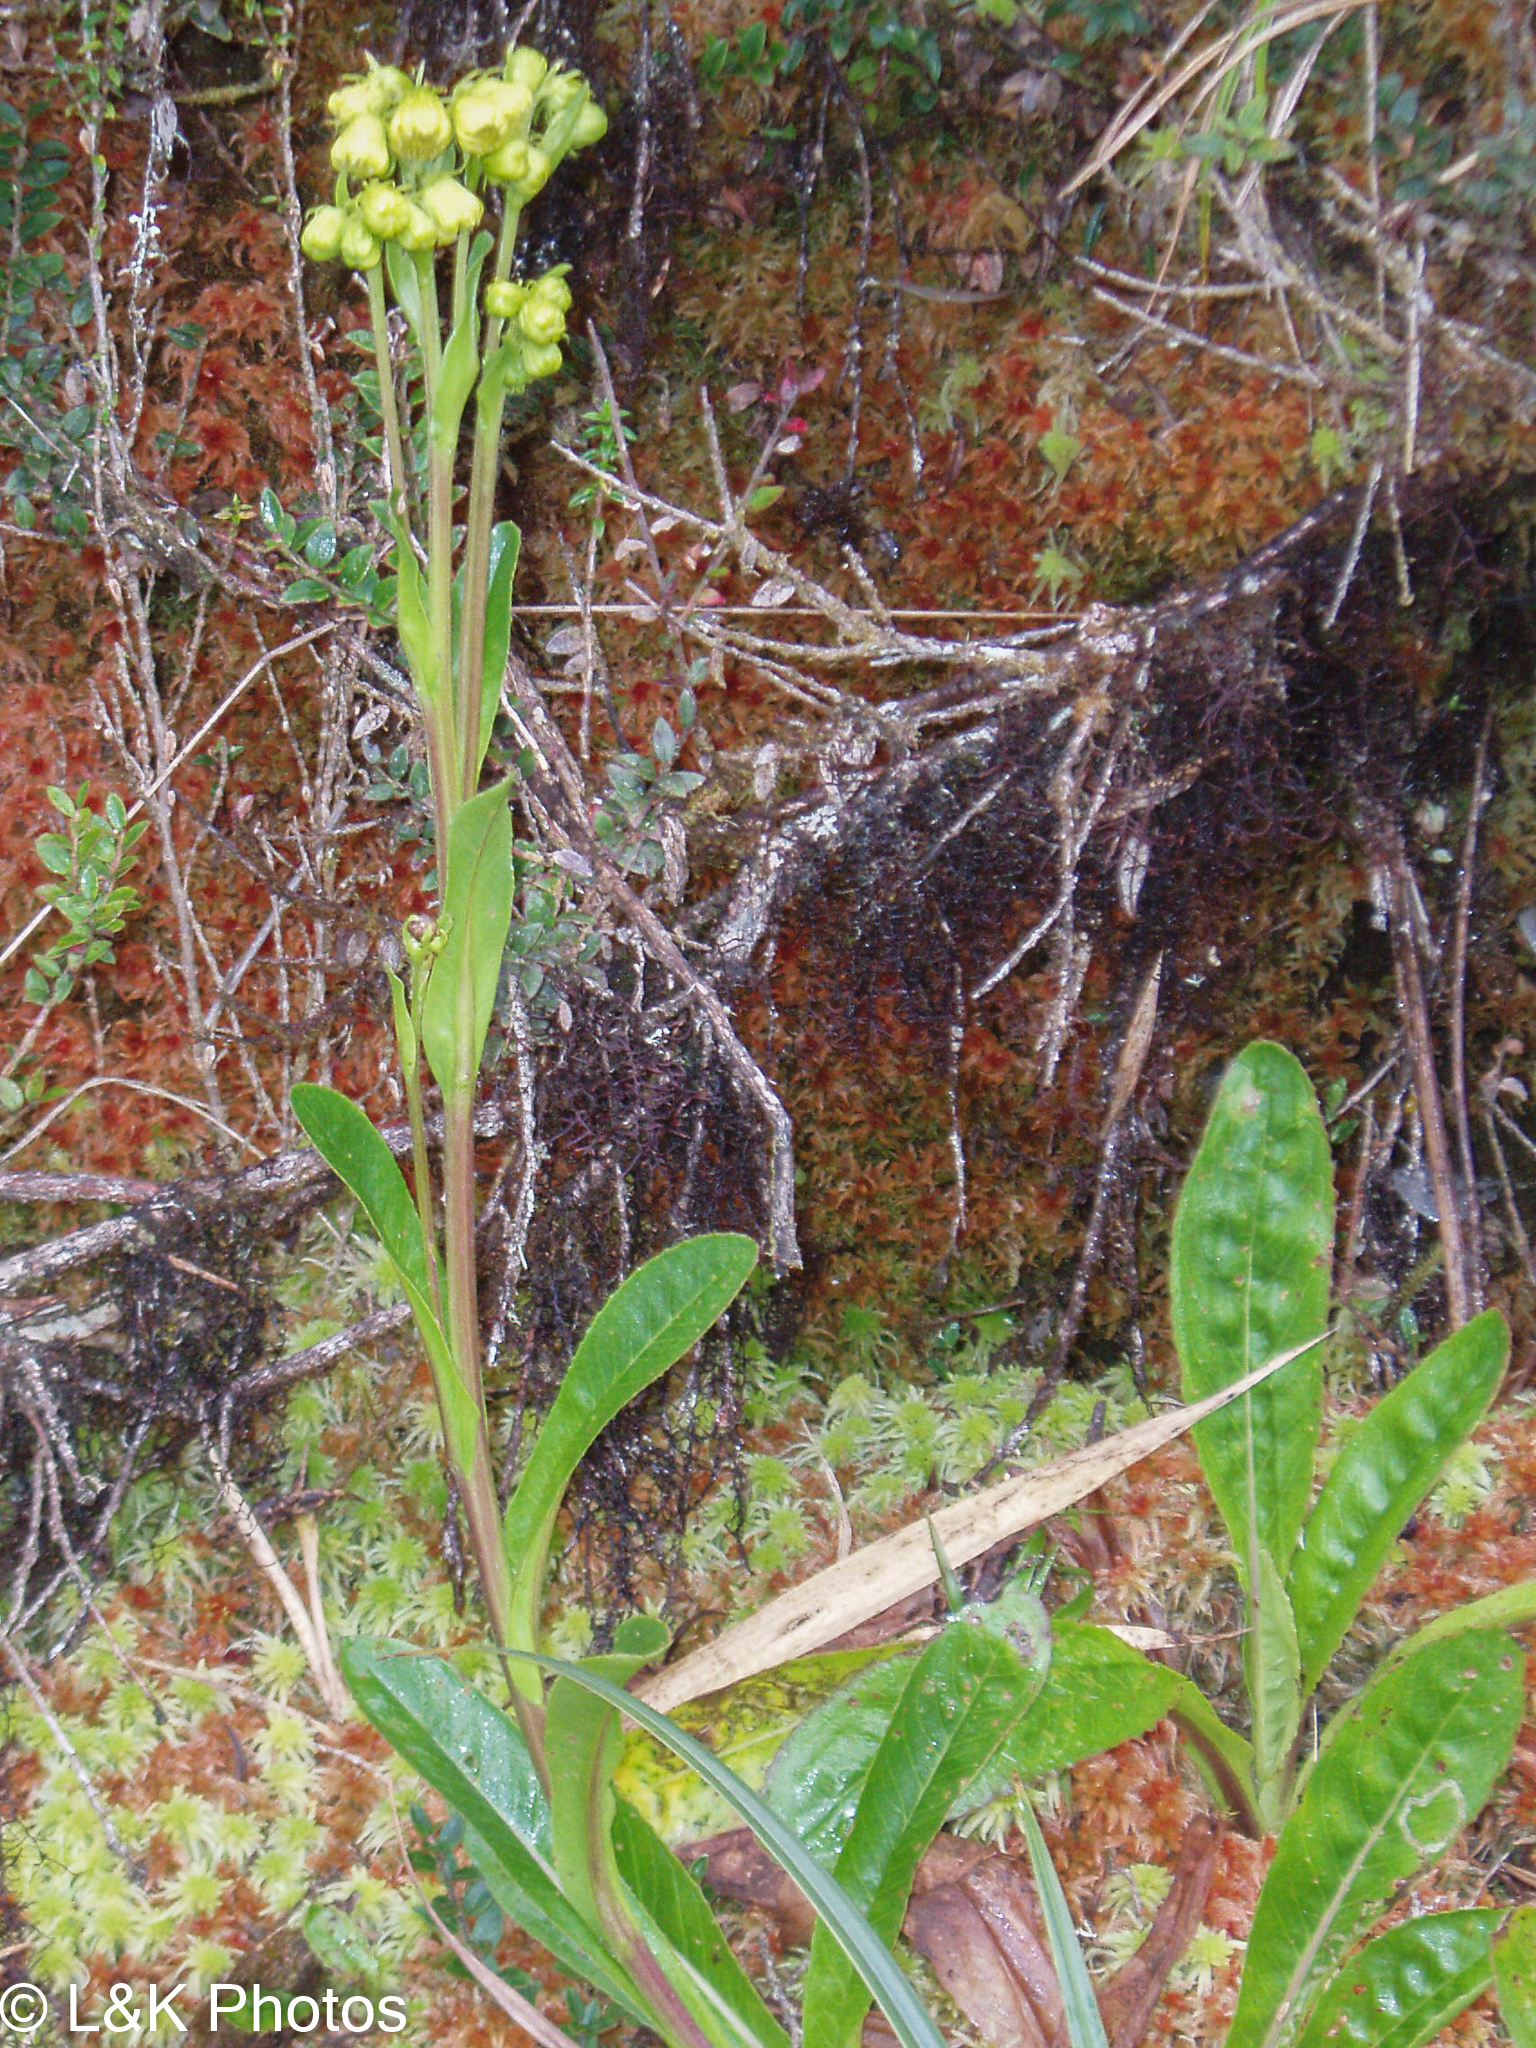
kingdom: Plantae
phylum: Tracheophyta
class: Magnoliopsida
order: Asterales
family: Asteraceae
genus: Senecio
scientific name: Senecio praeruptorum
